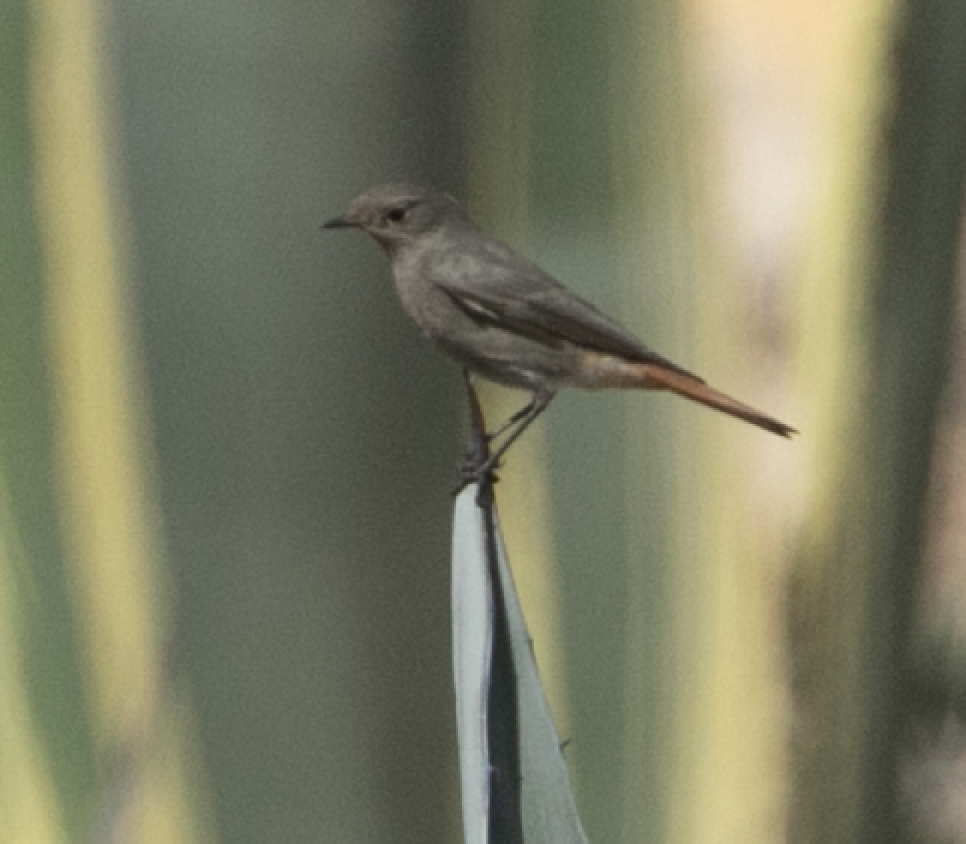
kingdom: Animalia
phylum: Chordata
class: Aves
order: Passeriformes
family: Muscicapidae
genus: Phoenicurus
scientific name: Phoenicurus ochruros
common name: Black redstart
